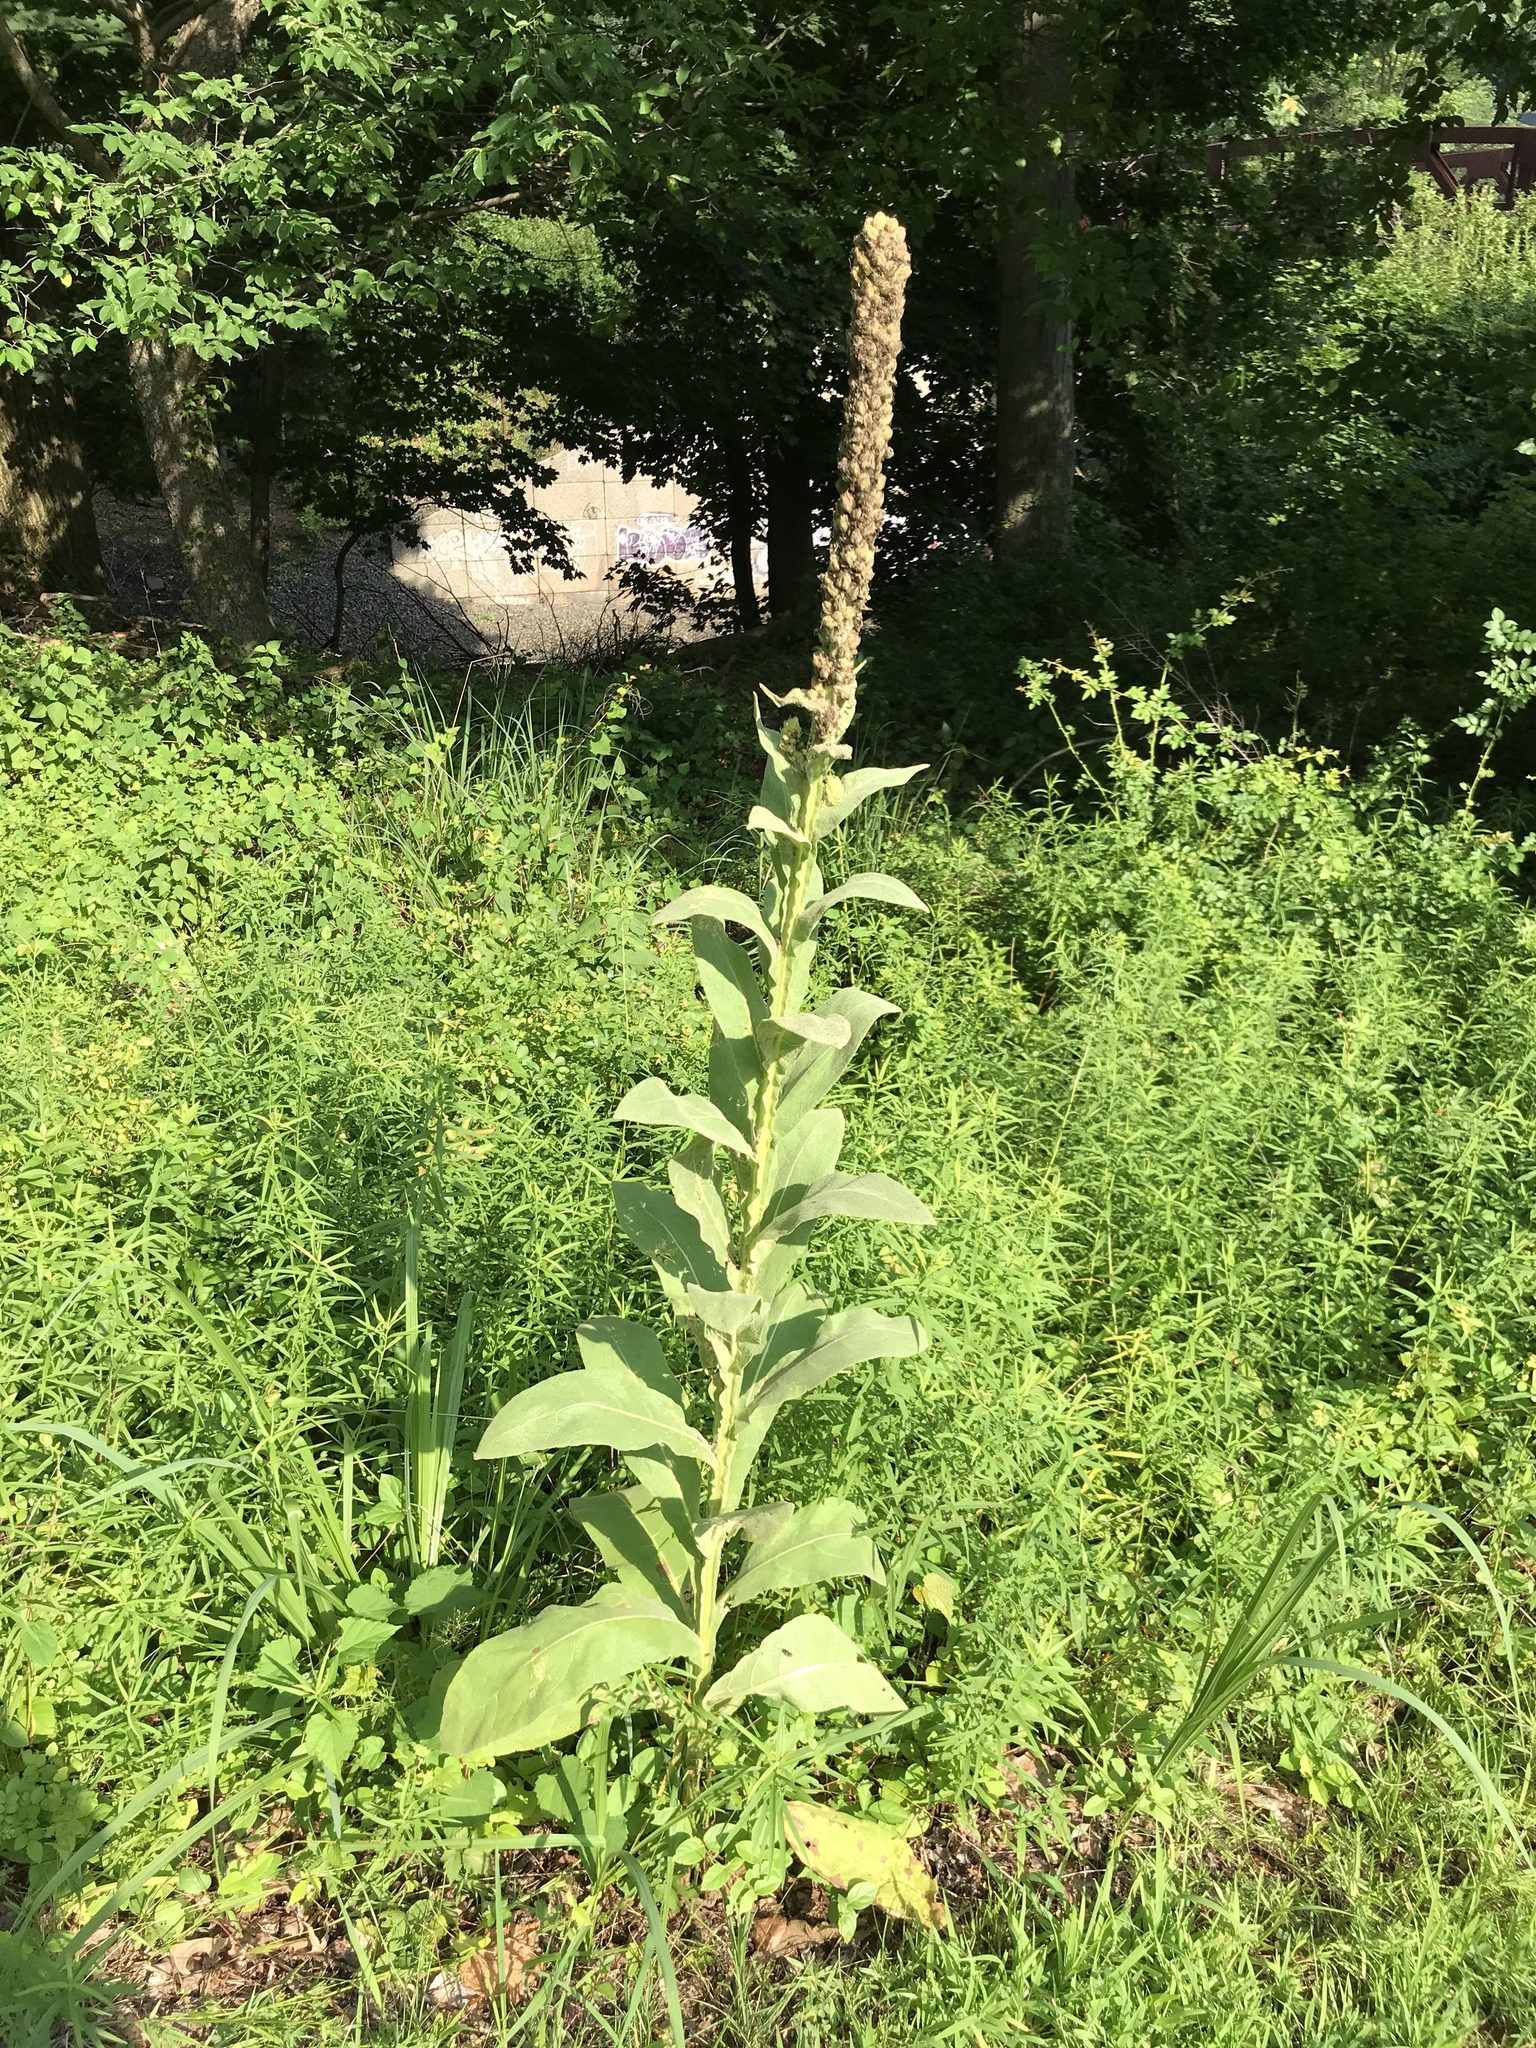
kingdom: Plantae
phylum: Tracheophyta
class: Magnoliopsida
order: Lamiales
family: Scrophulariaceae
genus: Verbascum
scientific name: Verbascum thapsus
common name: Common mullein
